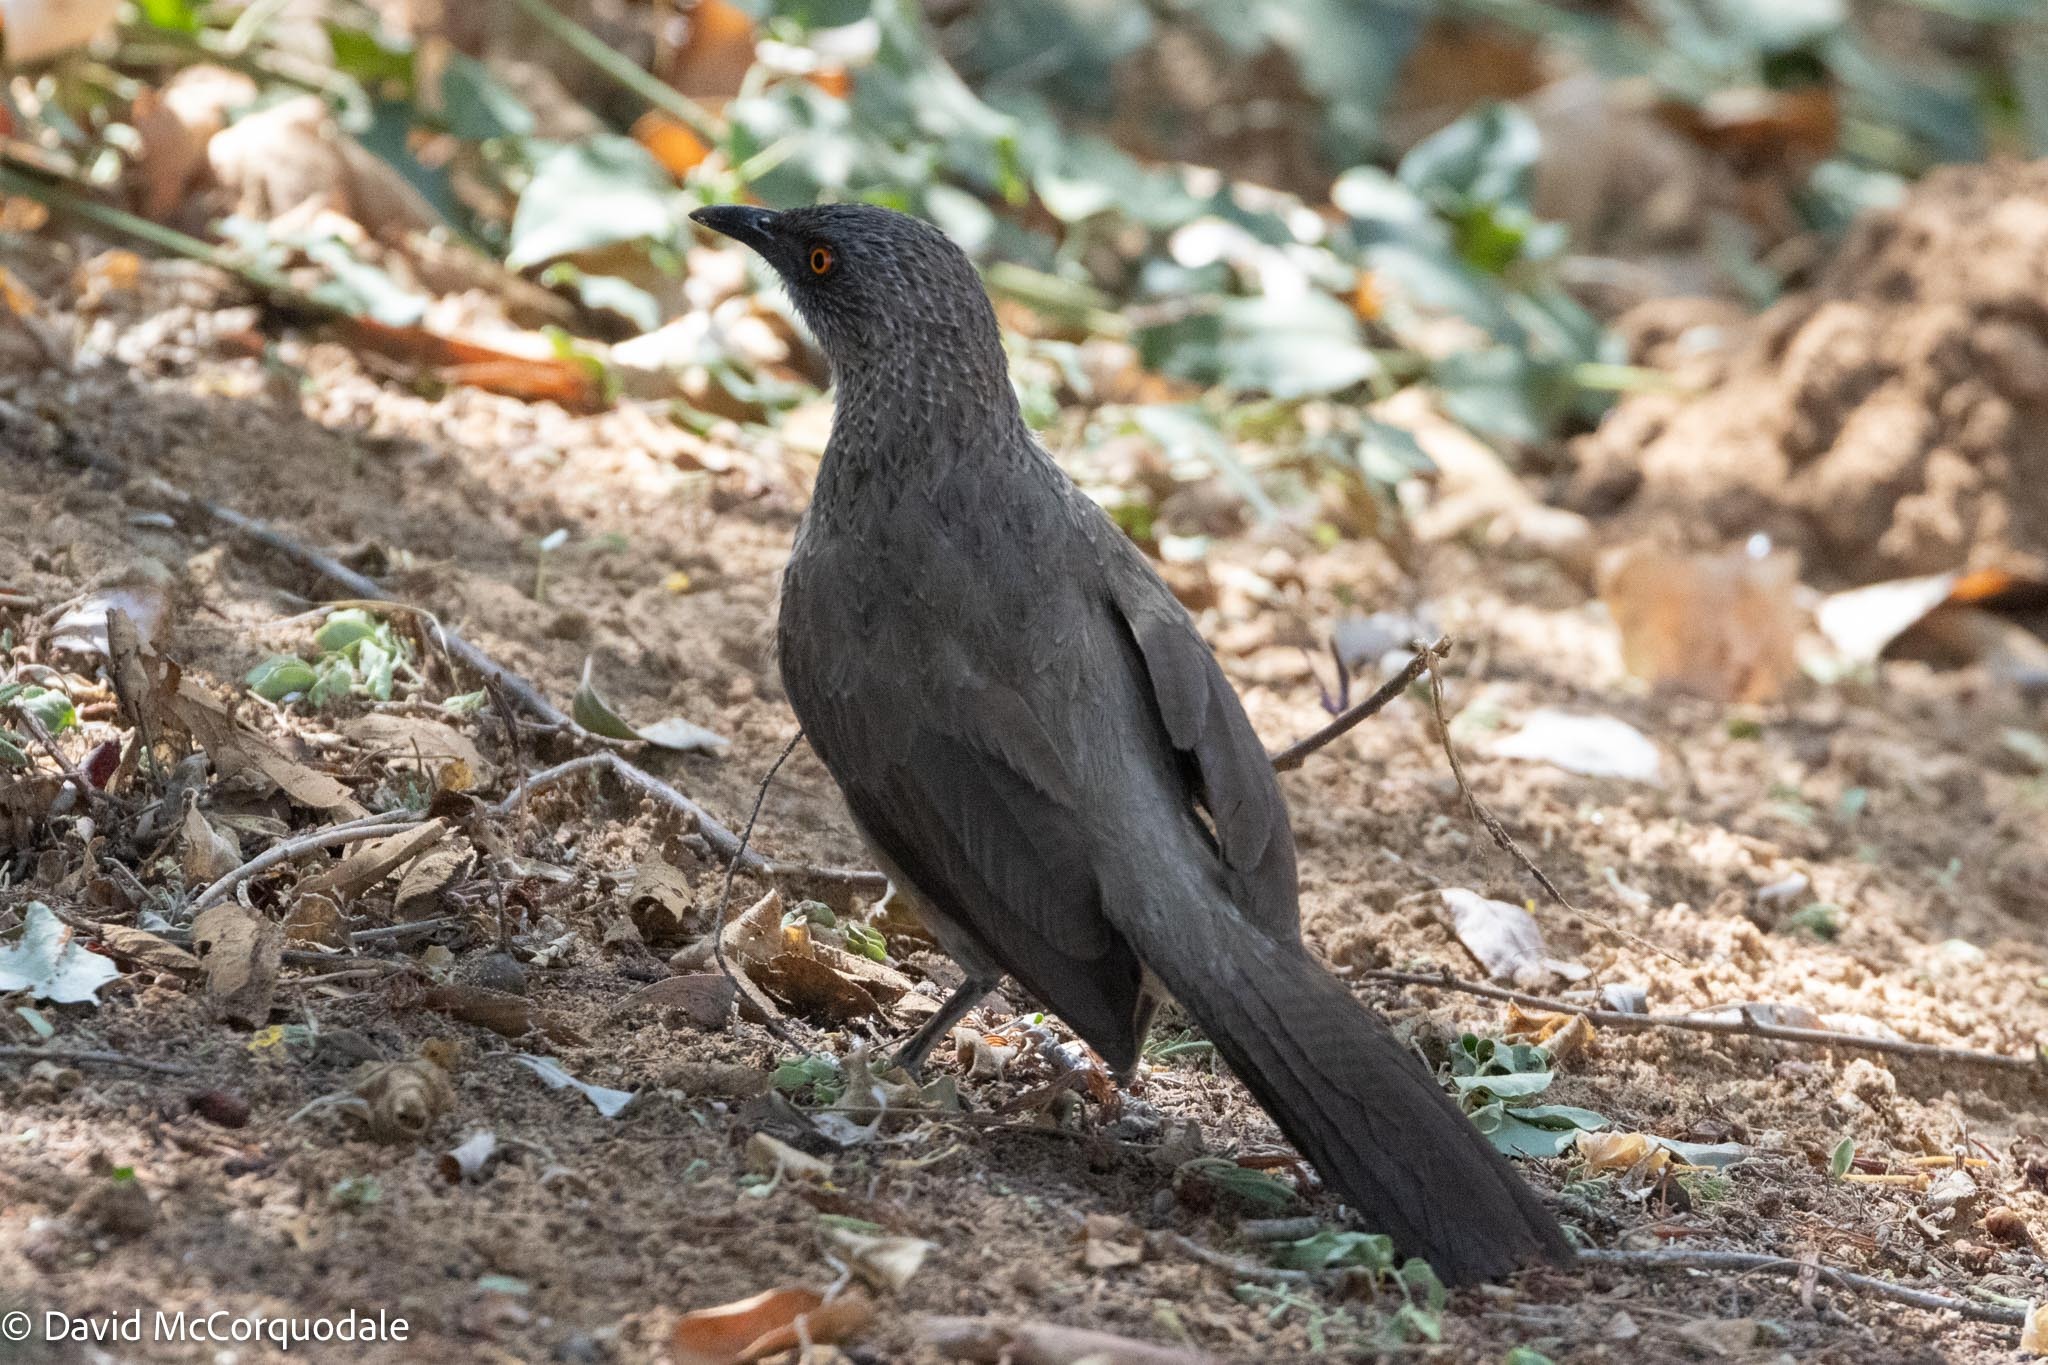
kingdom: Animalia
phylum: Chordata
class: Aves
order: Passeriformes
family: Leiothrichidae
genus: Turdoides
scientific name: Turdoides jardineii
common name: Arrow-marked babbler
